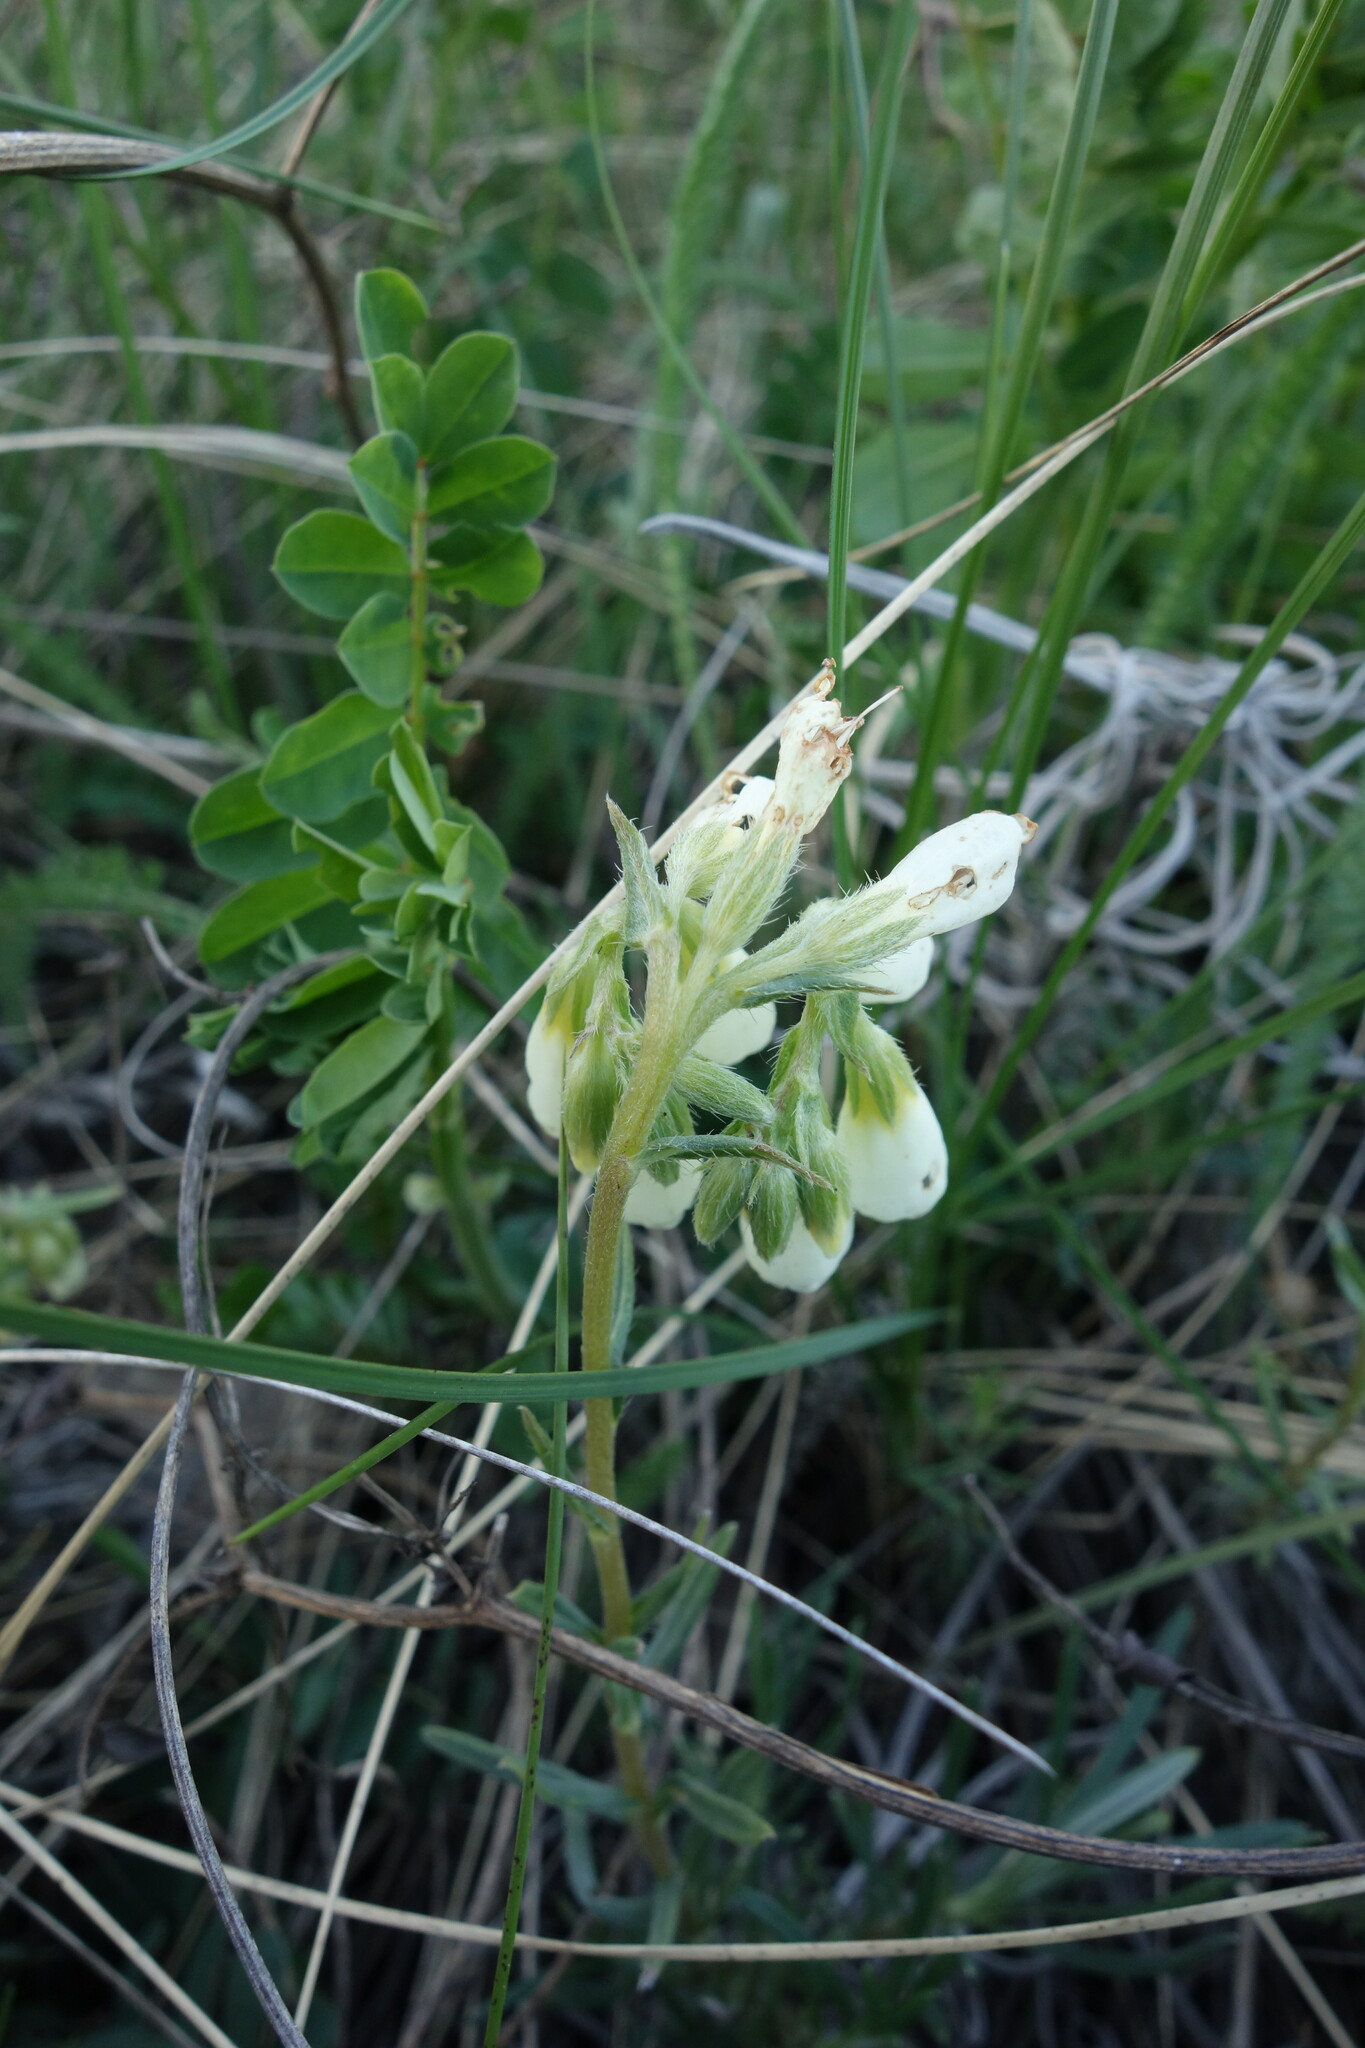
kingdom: Plantae
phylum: Tracheophyta
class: Magnoliopsida
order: Boraginales
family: Boraginaceae
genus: Onosma
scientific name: Onosma simplicissima
